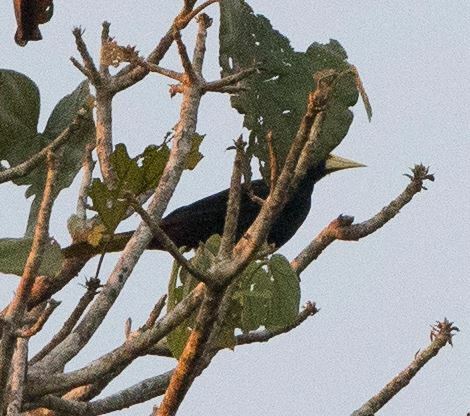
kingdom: Animalia
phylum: Chordata
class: Aves
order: Passeriformes
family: Icteridae
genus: Psarocolius
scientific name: Psarocolius decumanus
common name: Crested oropendola
